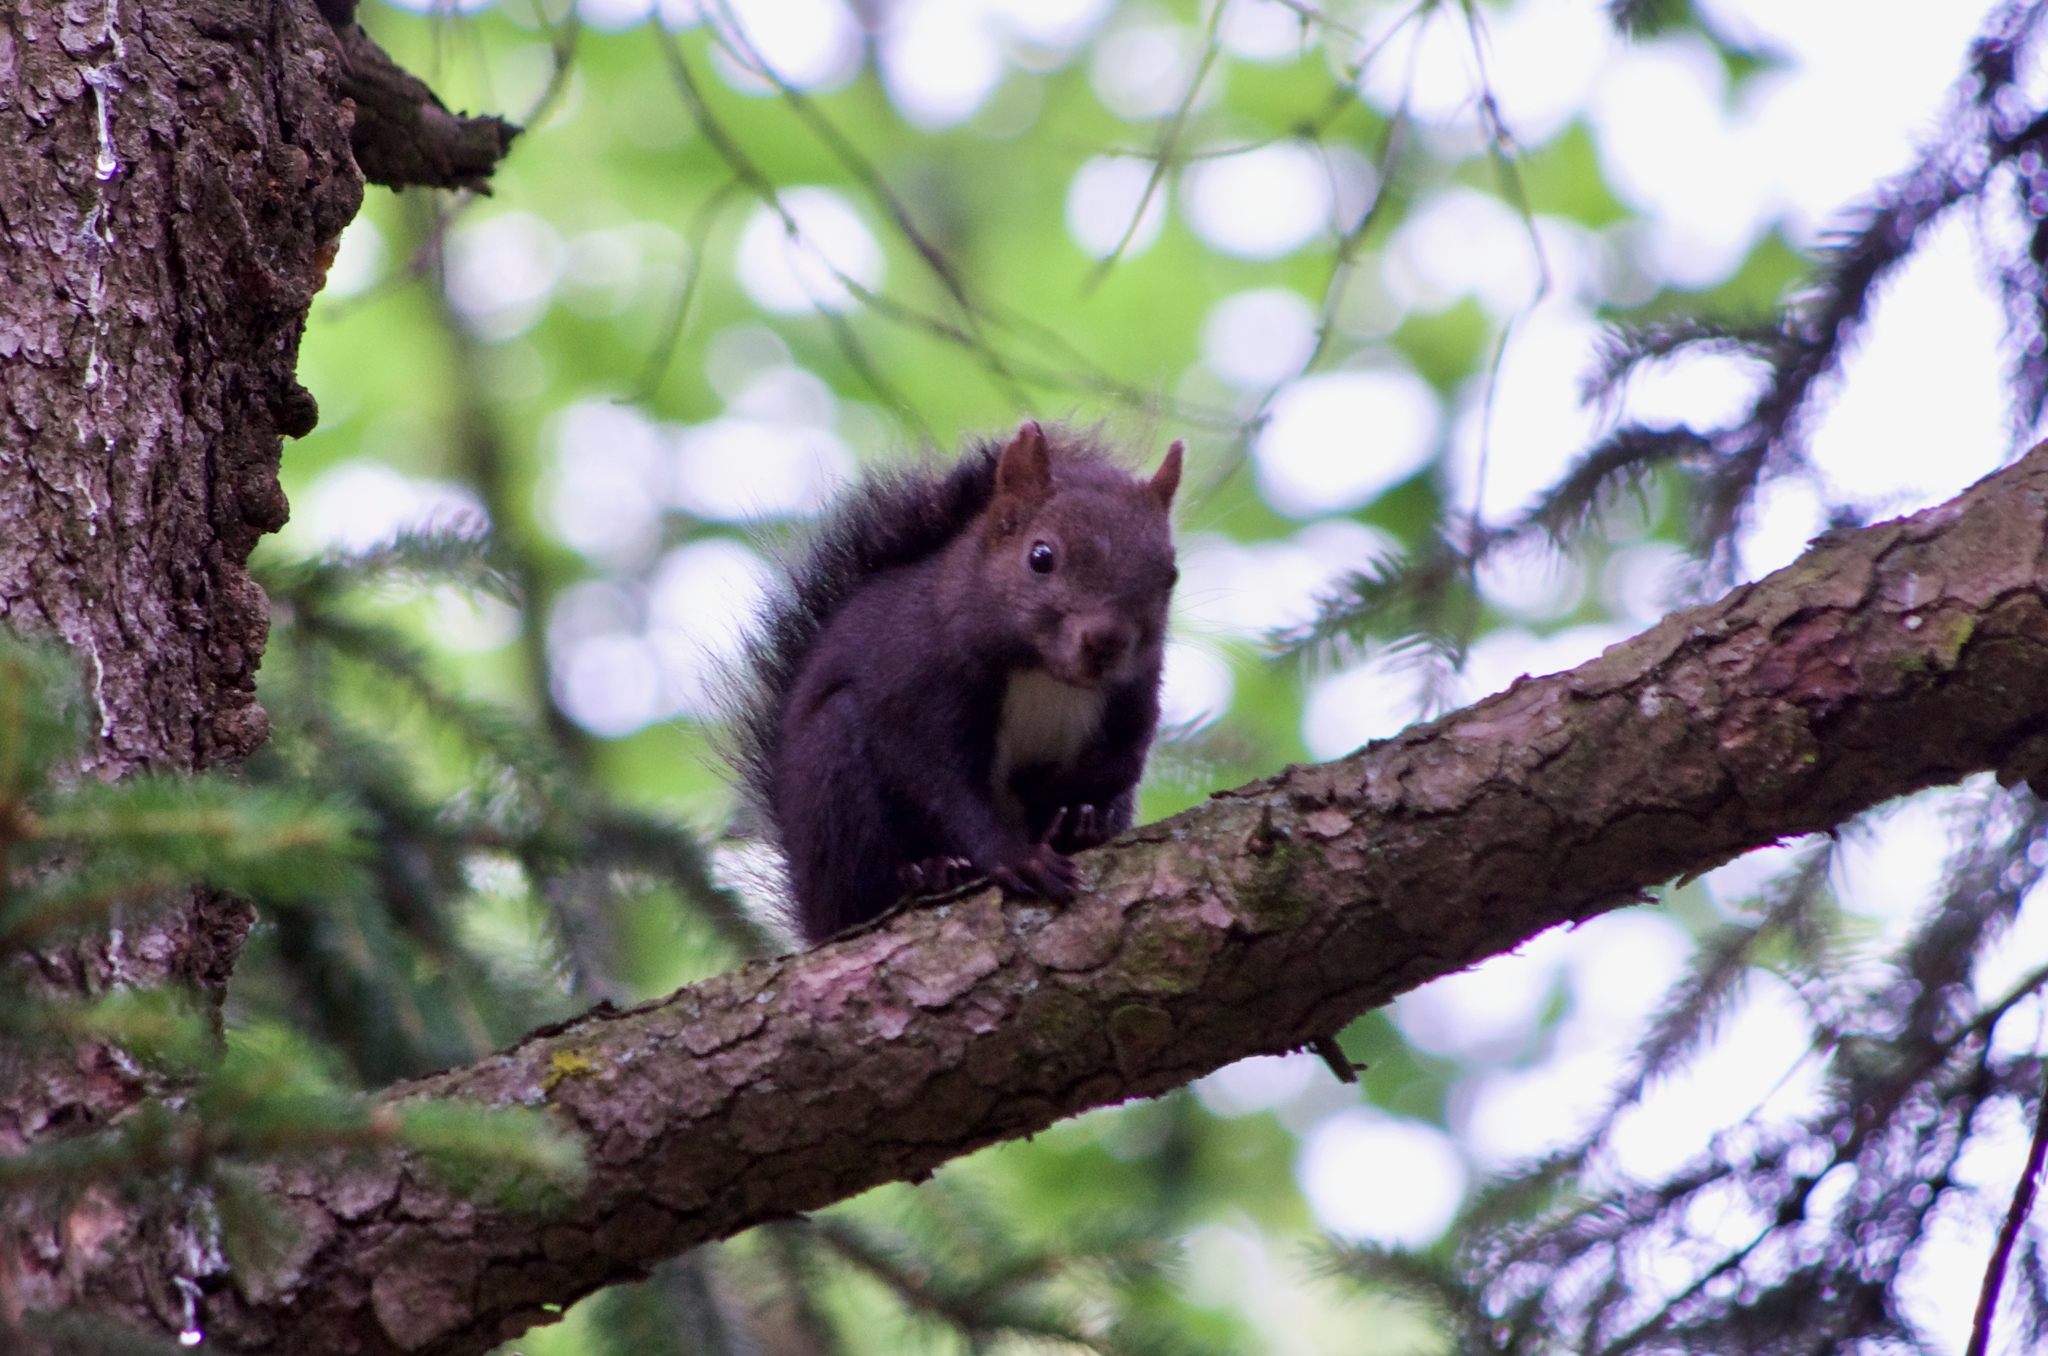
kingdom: Animalia
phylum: Chordata
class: Mammalia
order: Rodentia
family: Sciuridae
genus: Sciurus
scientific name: Sciurus vulgaris
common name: Eurasian red squirrel
